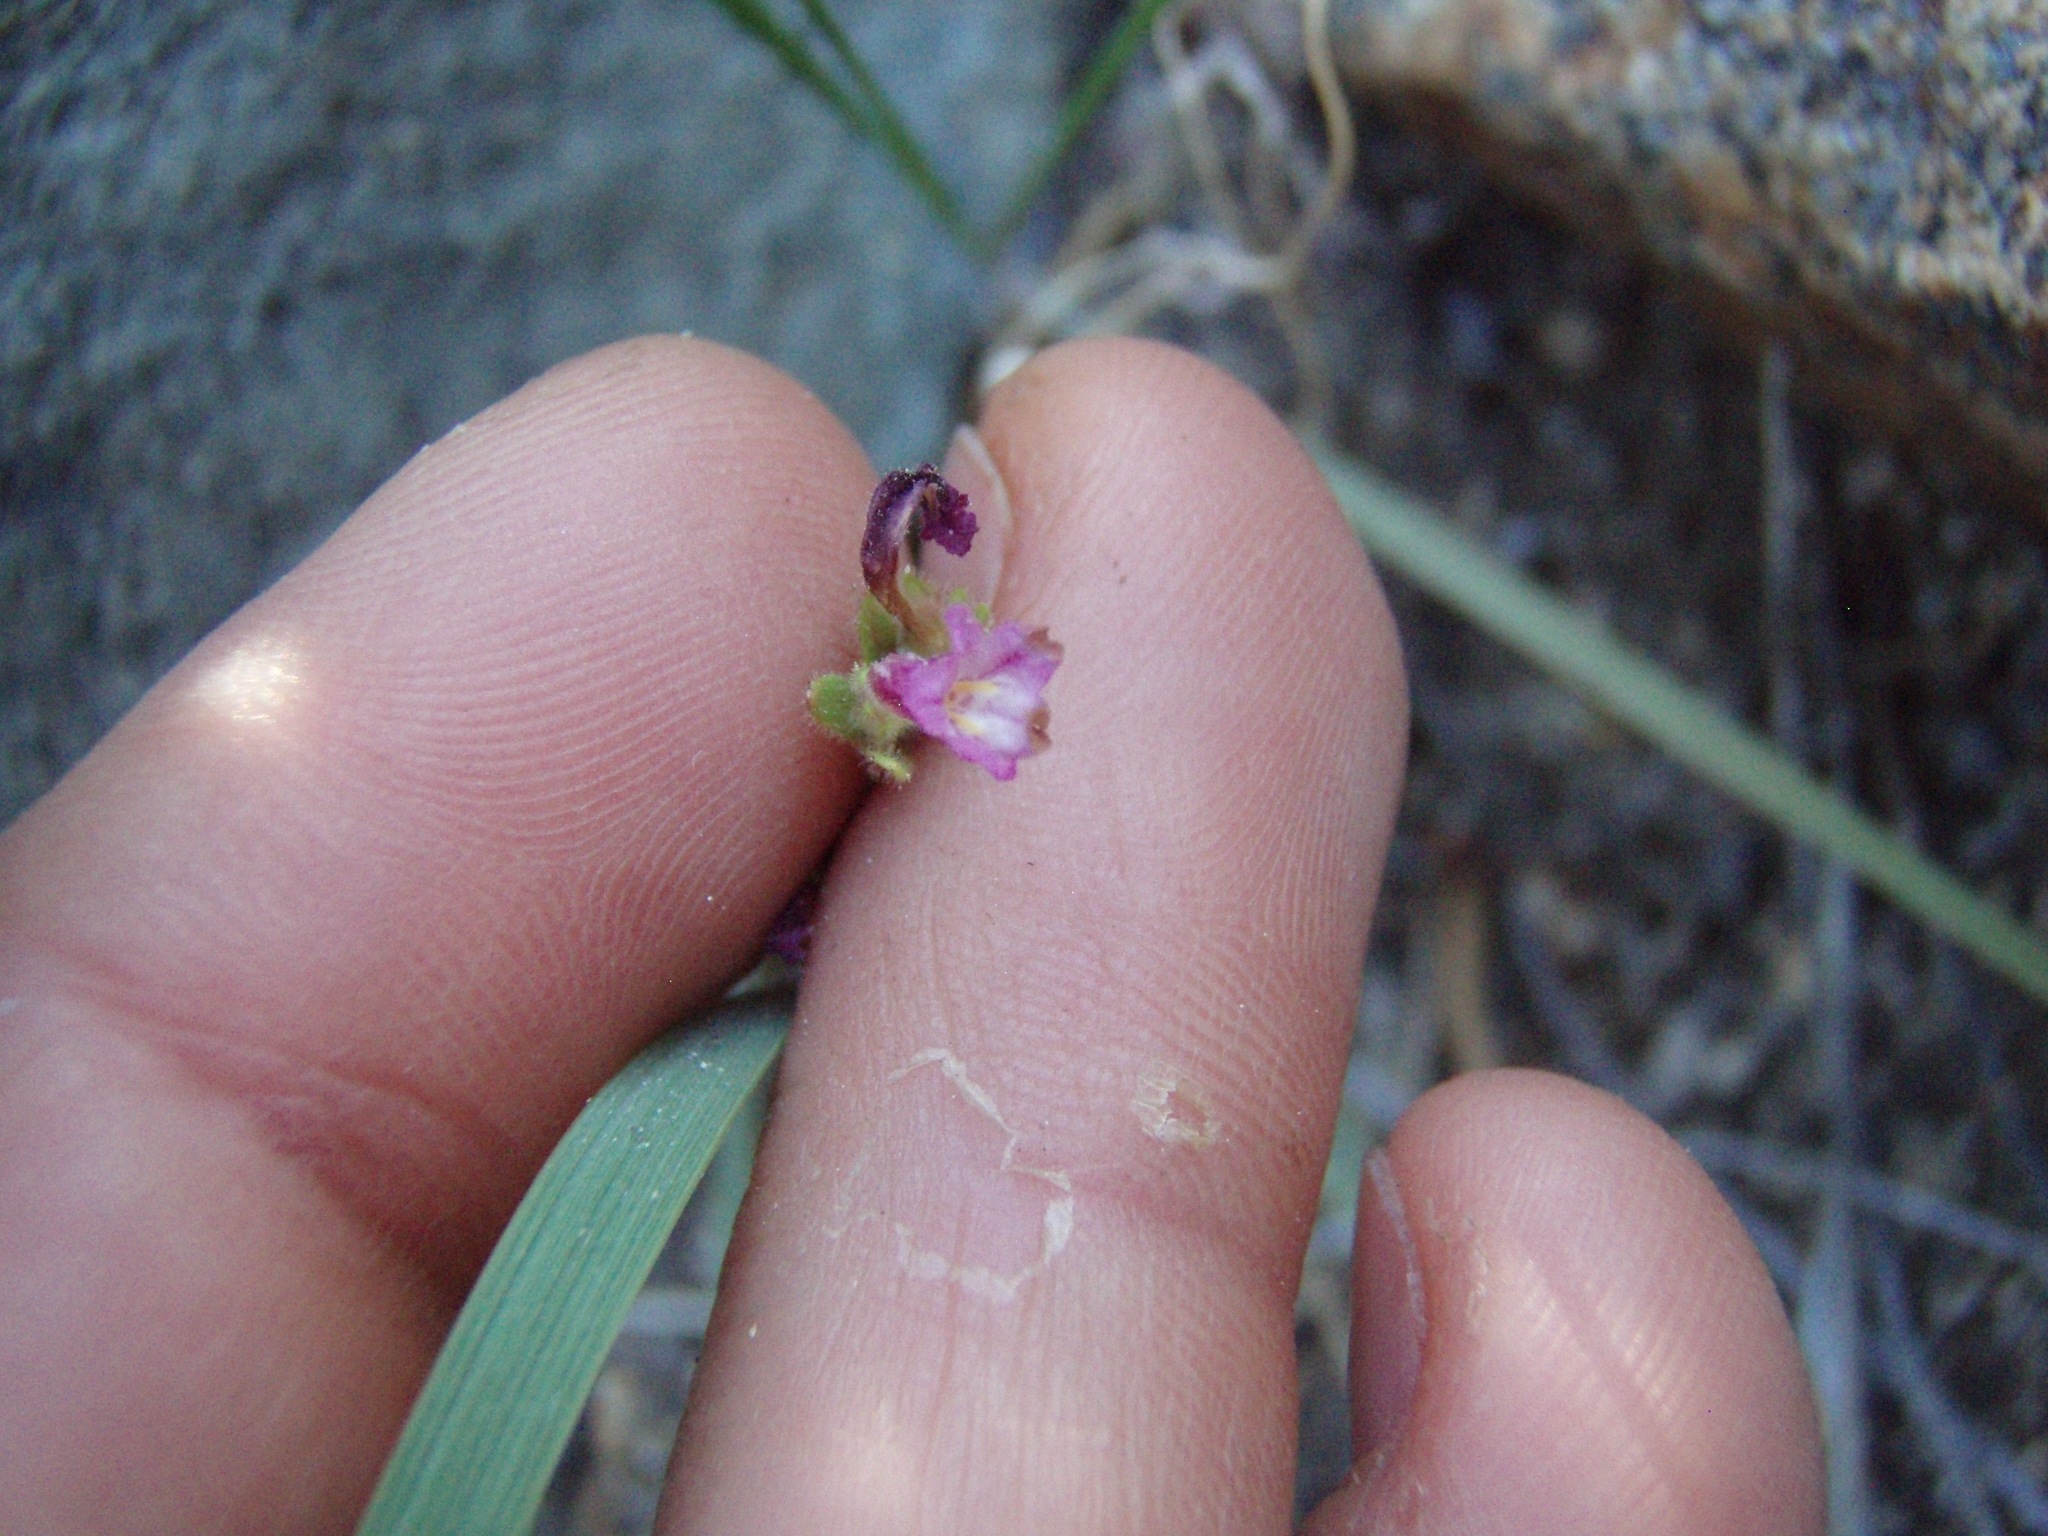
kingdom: Plantae
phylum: Tracheophyta
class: Magnoliopsida
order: Lamiales
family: Phrymaceae
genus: Diplacus
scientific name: Diplacus leptaleus
